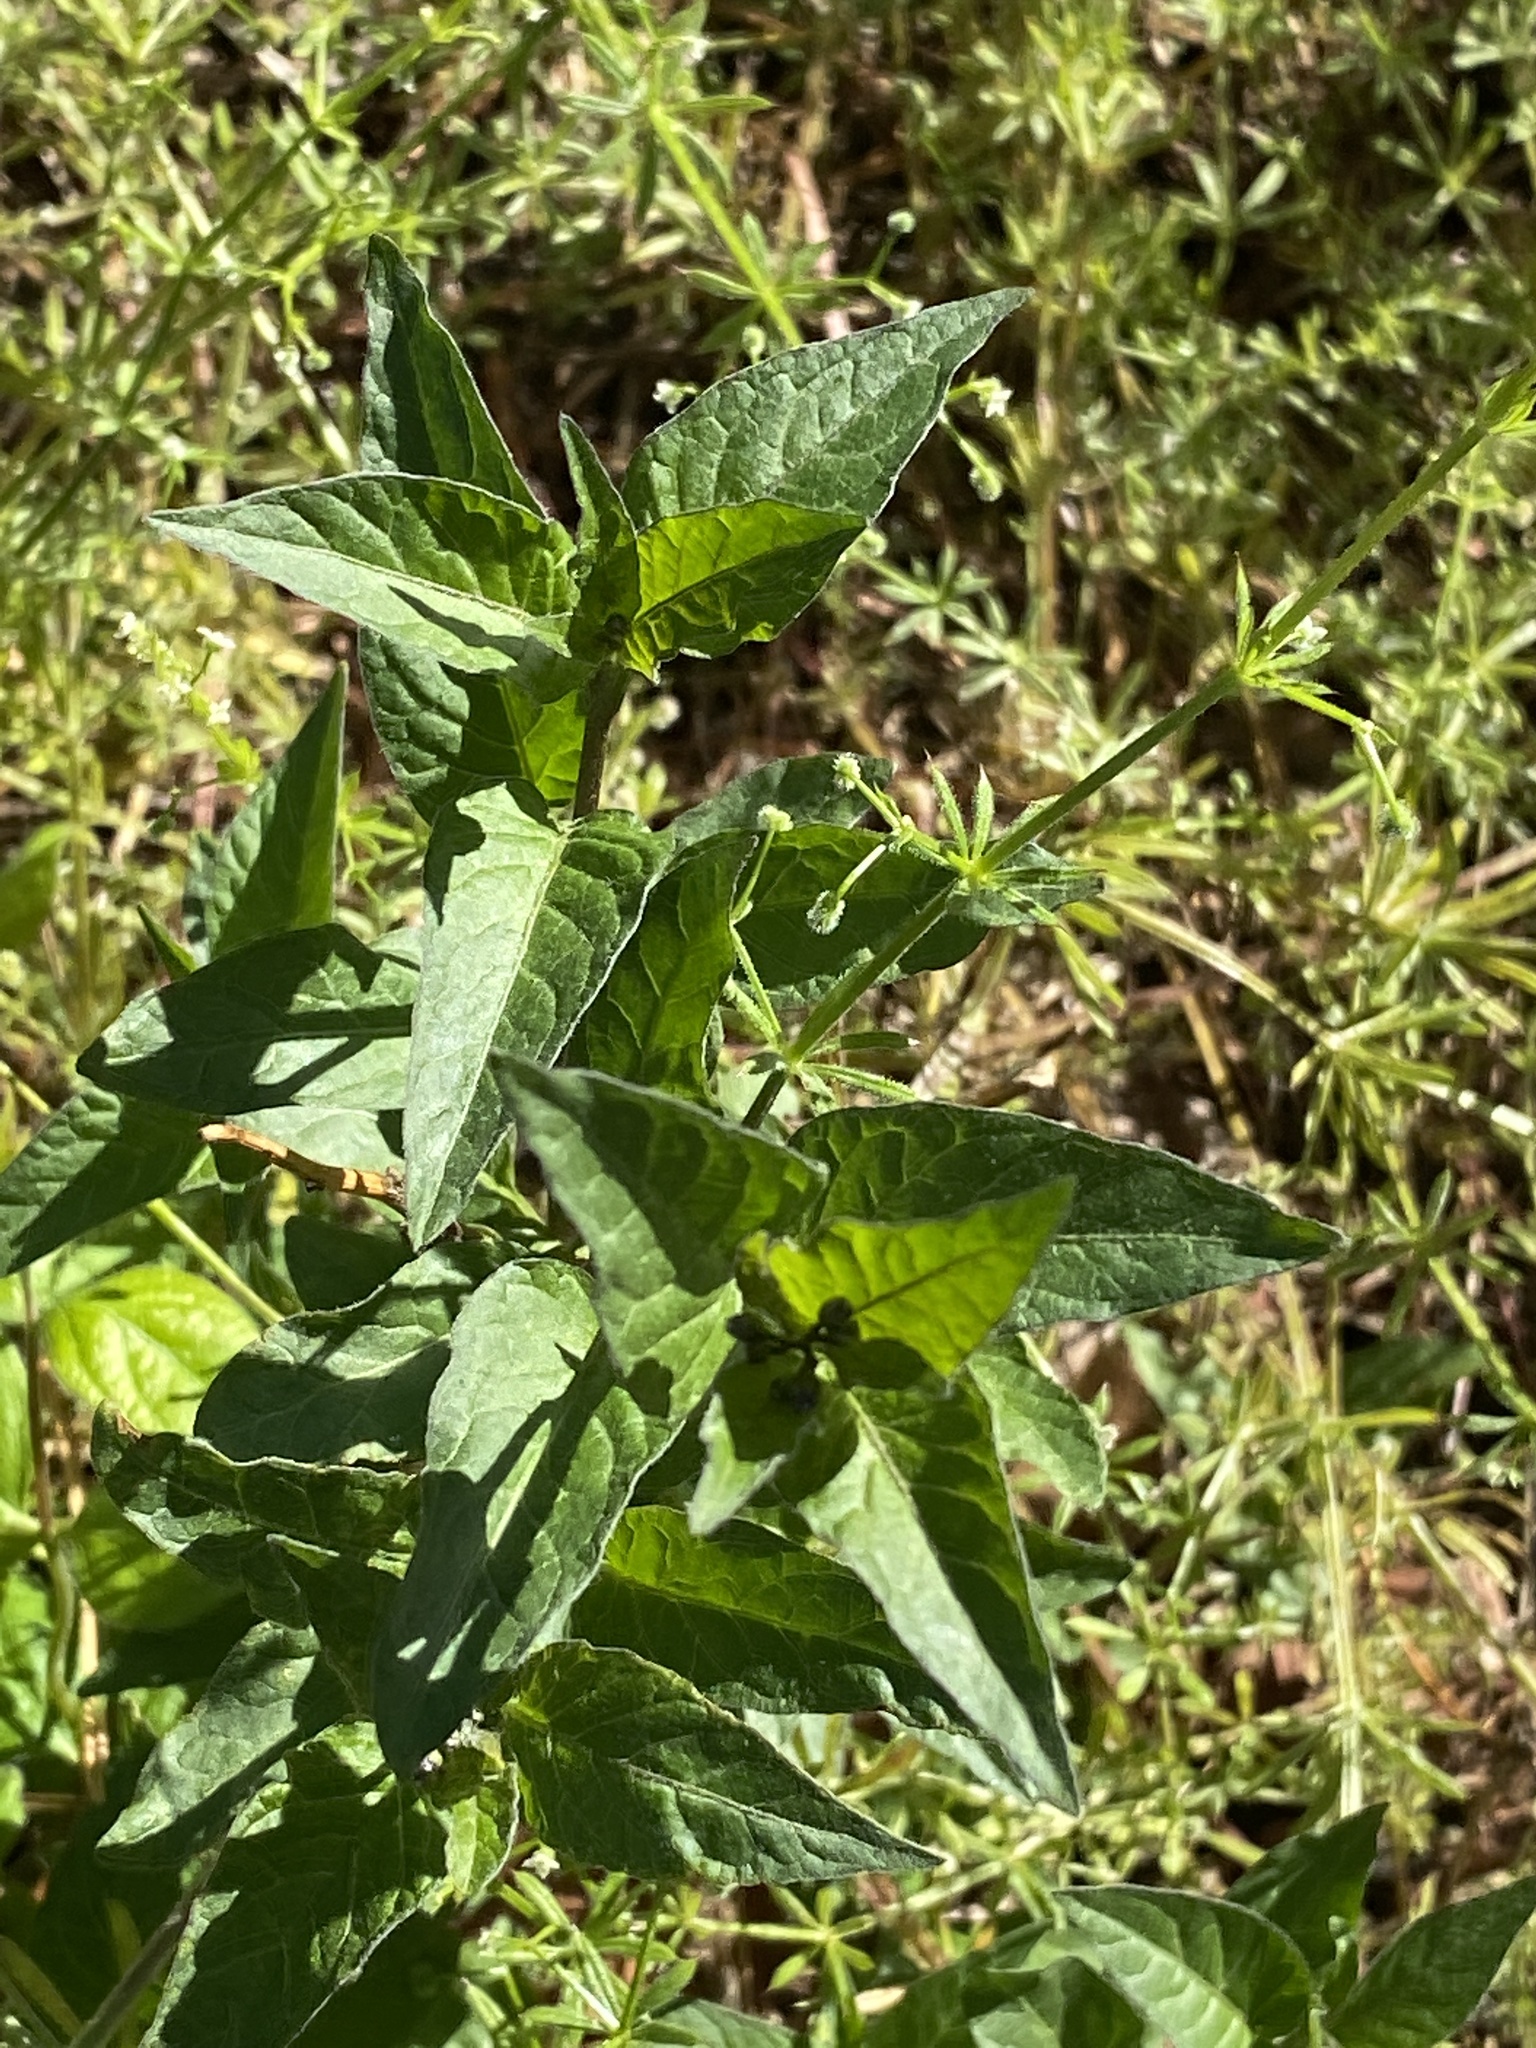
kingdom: Plantae
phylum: Tracheophyta
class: Magnoliopsida
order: Solanales
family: Solanaceae
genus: Solanum
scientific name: Solanum dulcamara
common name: Climbing nightshade
